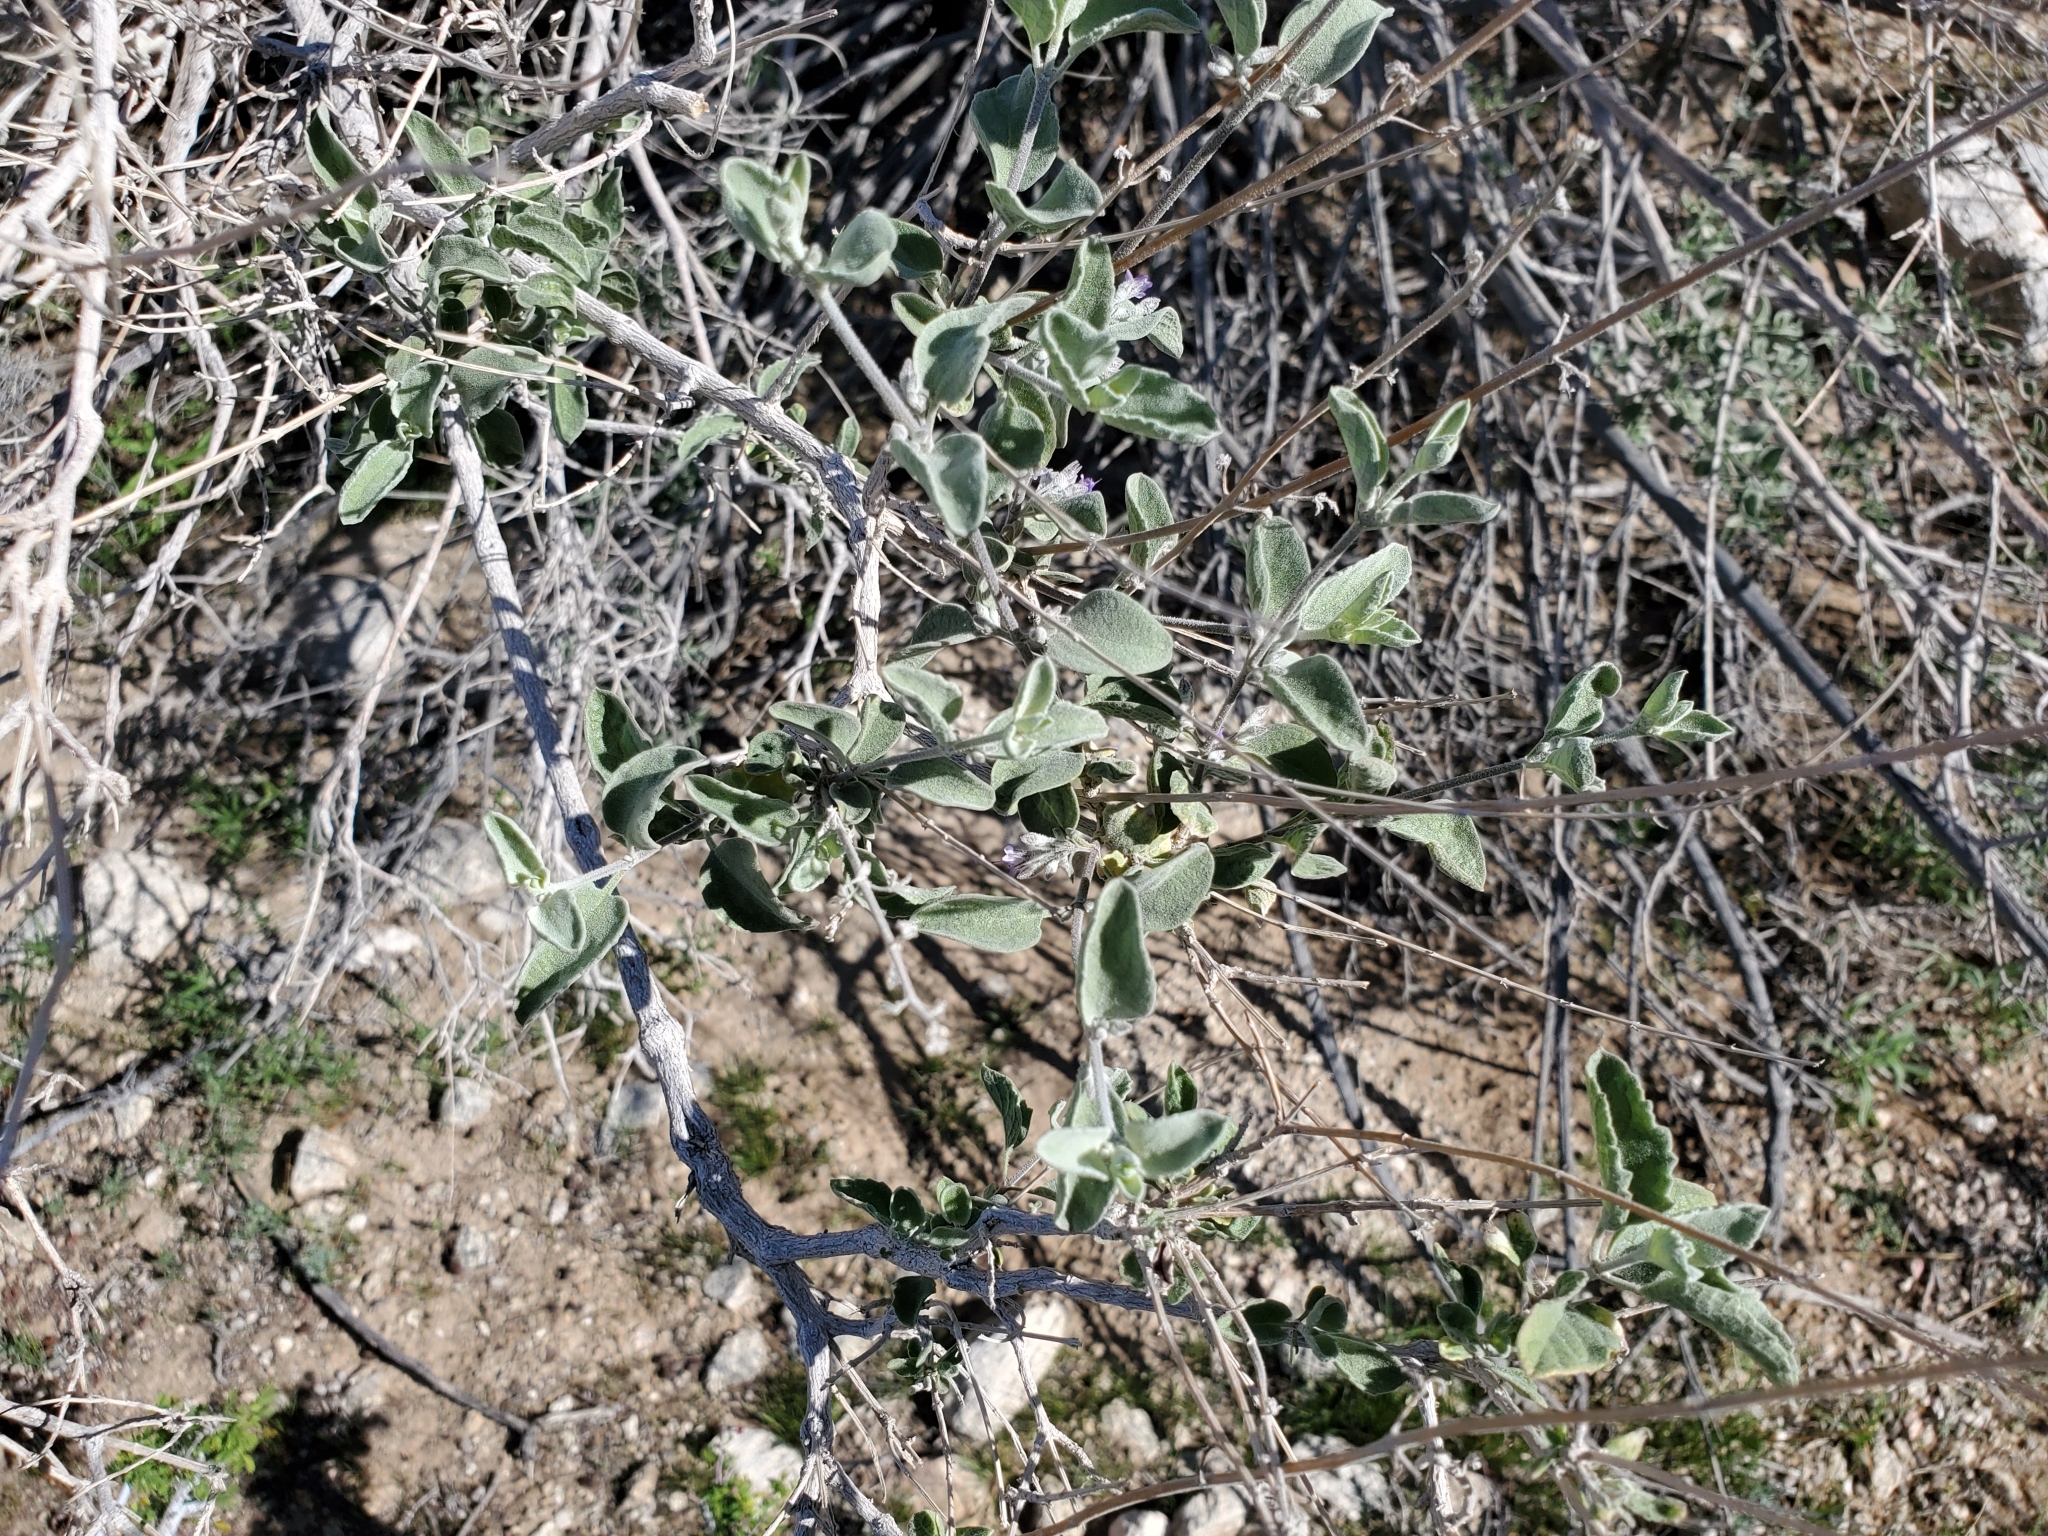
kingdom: Plantae
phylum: Tracheophyta
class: Magnoliopsida
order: Lamiales
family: Lamiaceae
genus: Condea
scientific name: Condea emoryi
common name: Chia
